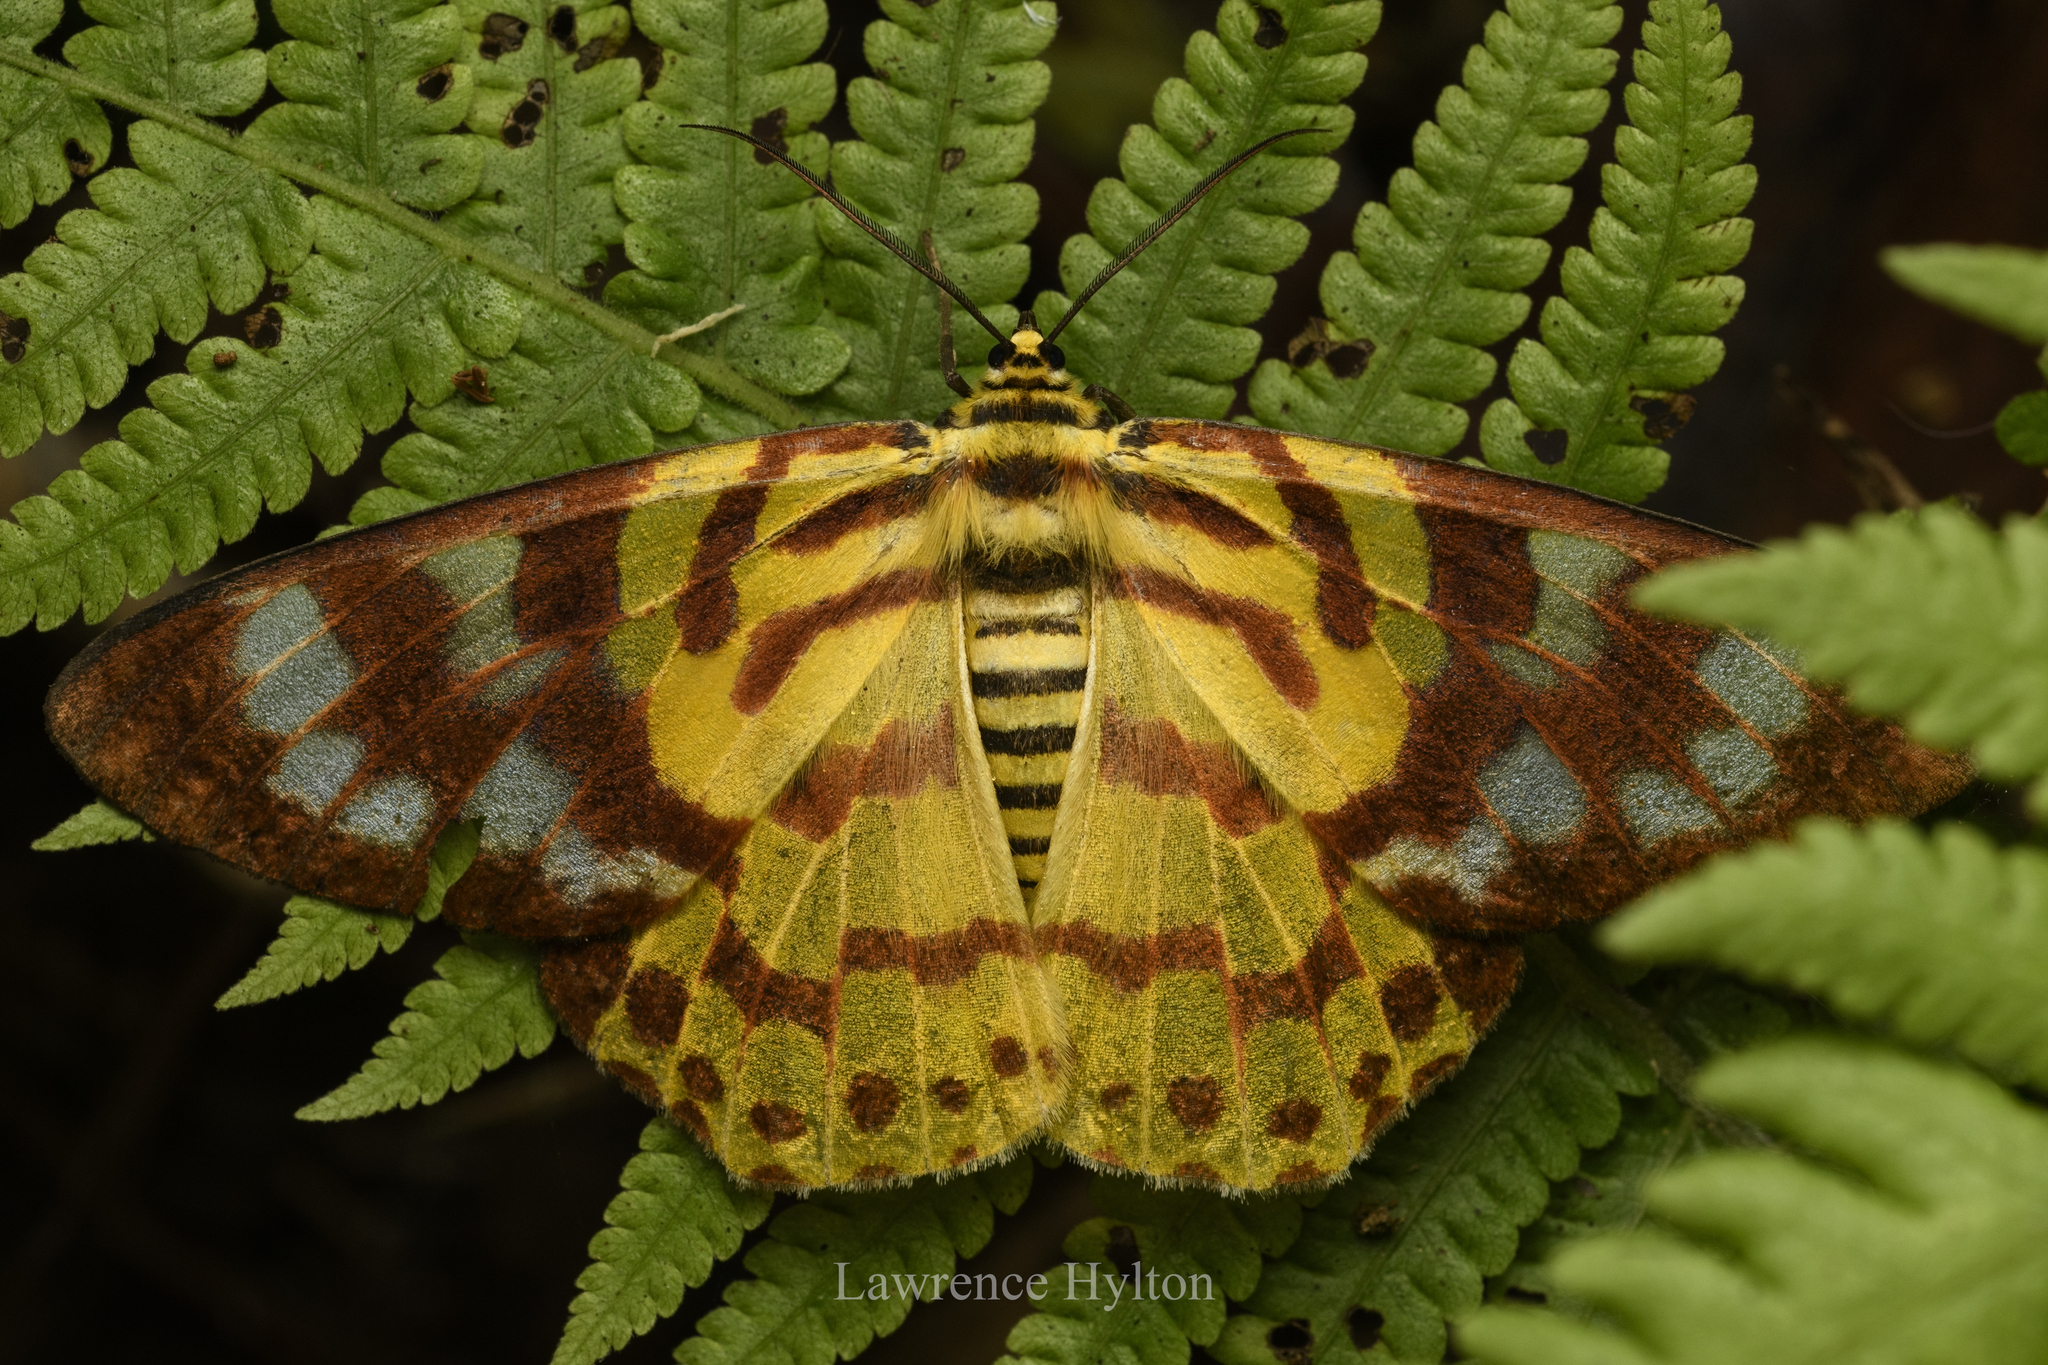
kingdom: Animalia
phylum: Arthropoda
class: Insecta
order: Lepidoptera
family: Geometridae
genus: Dysphania
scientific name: Dysphania militaris
